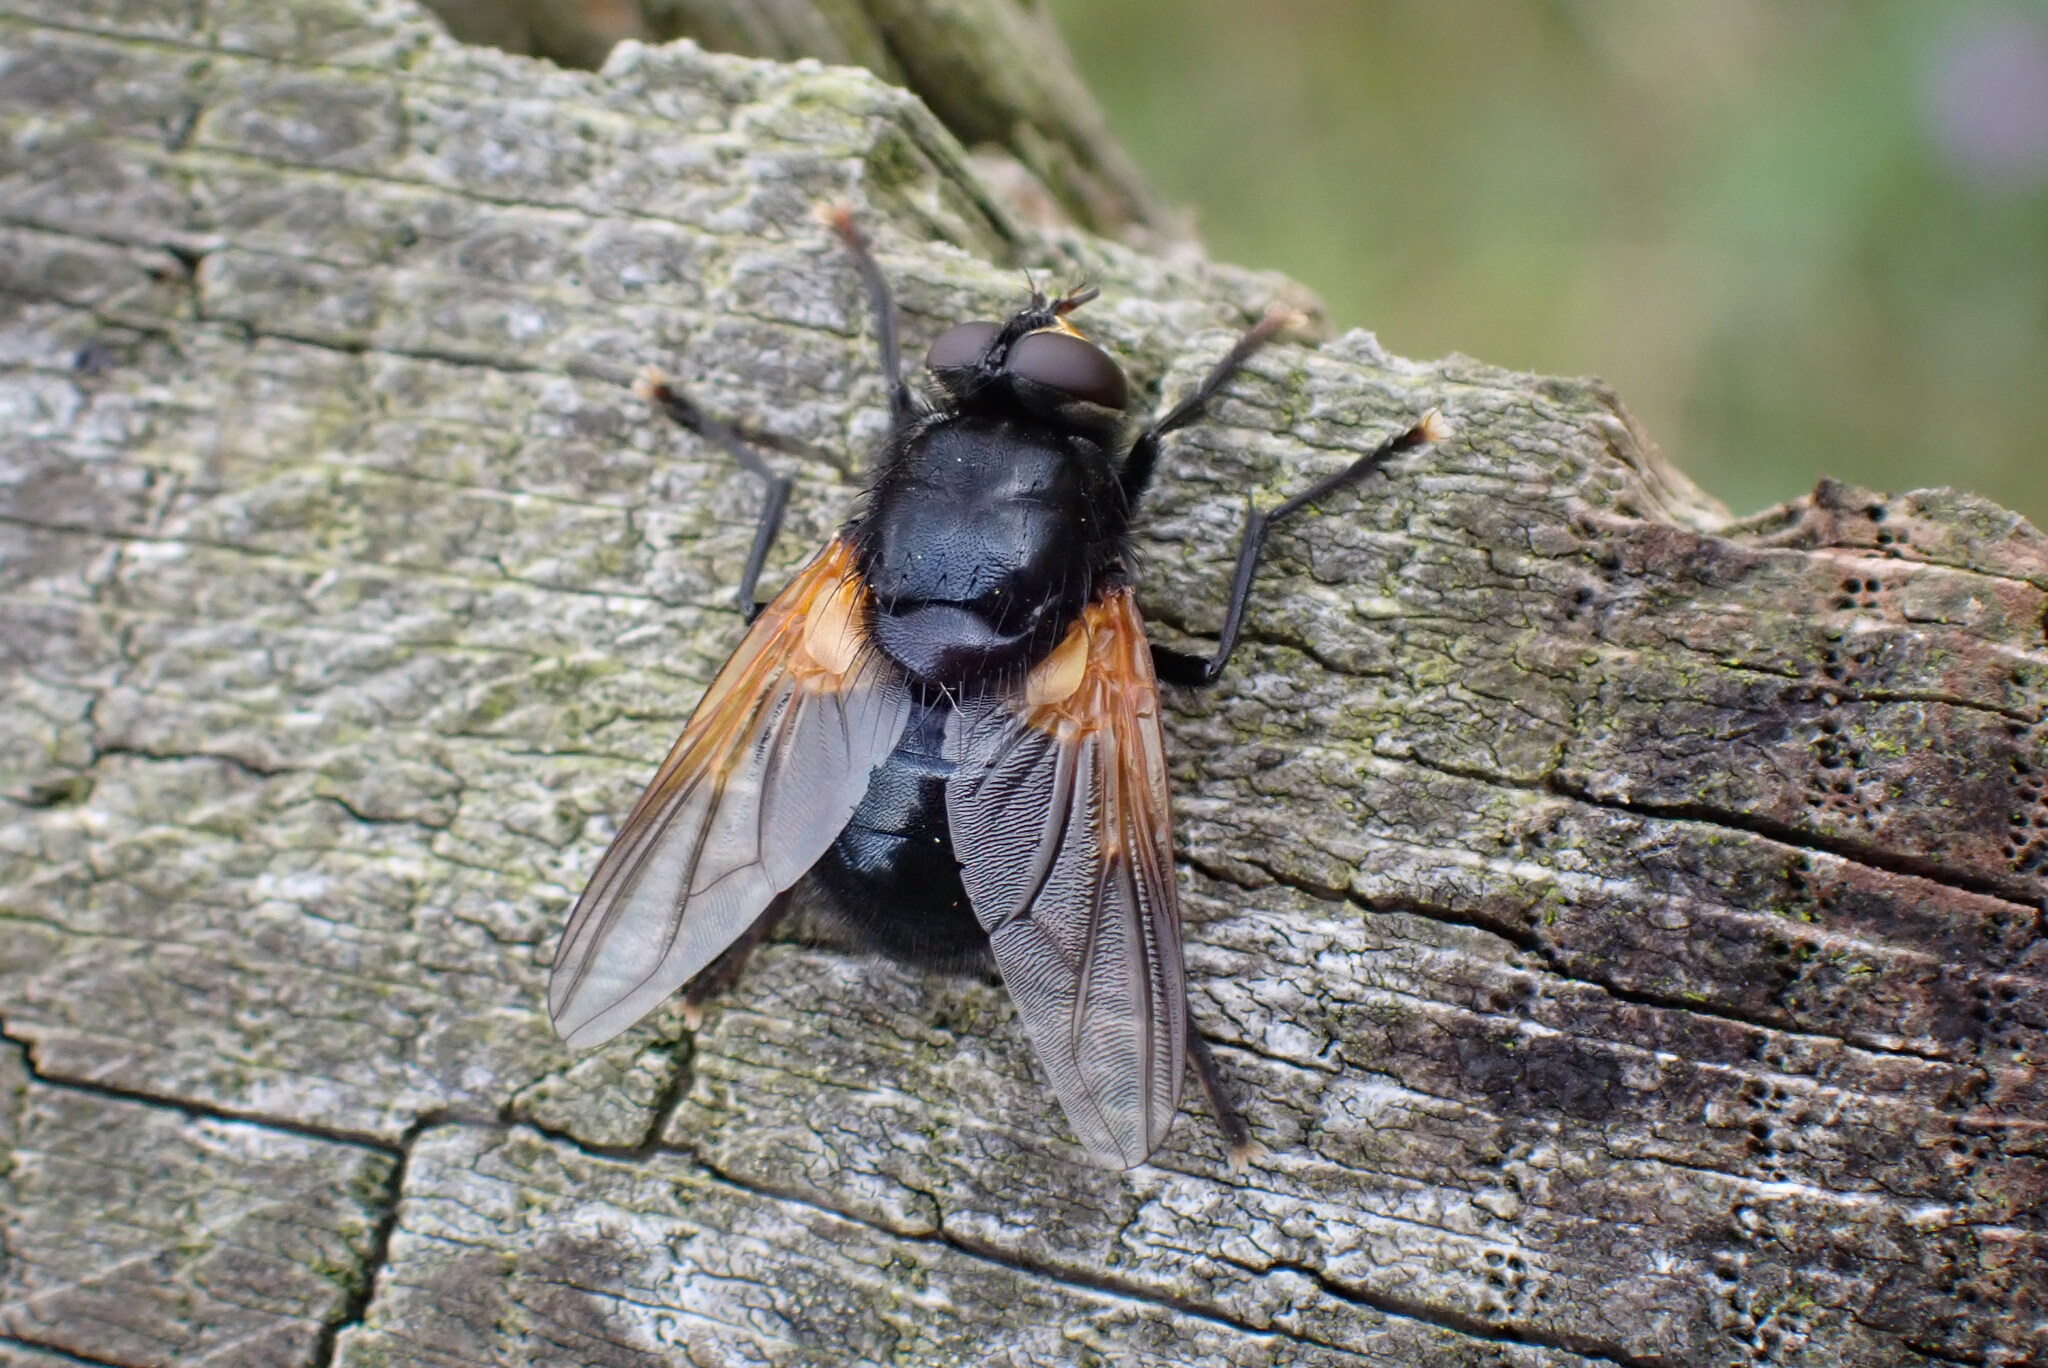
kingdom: Animalia
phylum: Arthropoda
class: Insecta
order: Diptera
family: Muscidae
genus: Mesembrina
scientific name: Mesembrina meridiana
